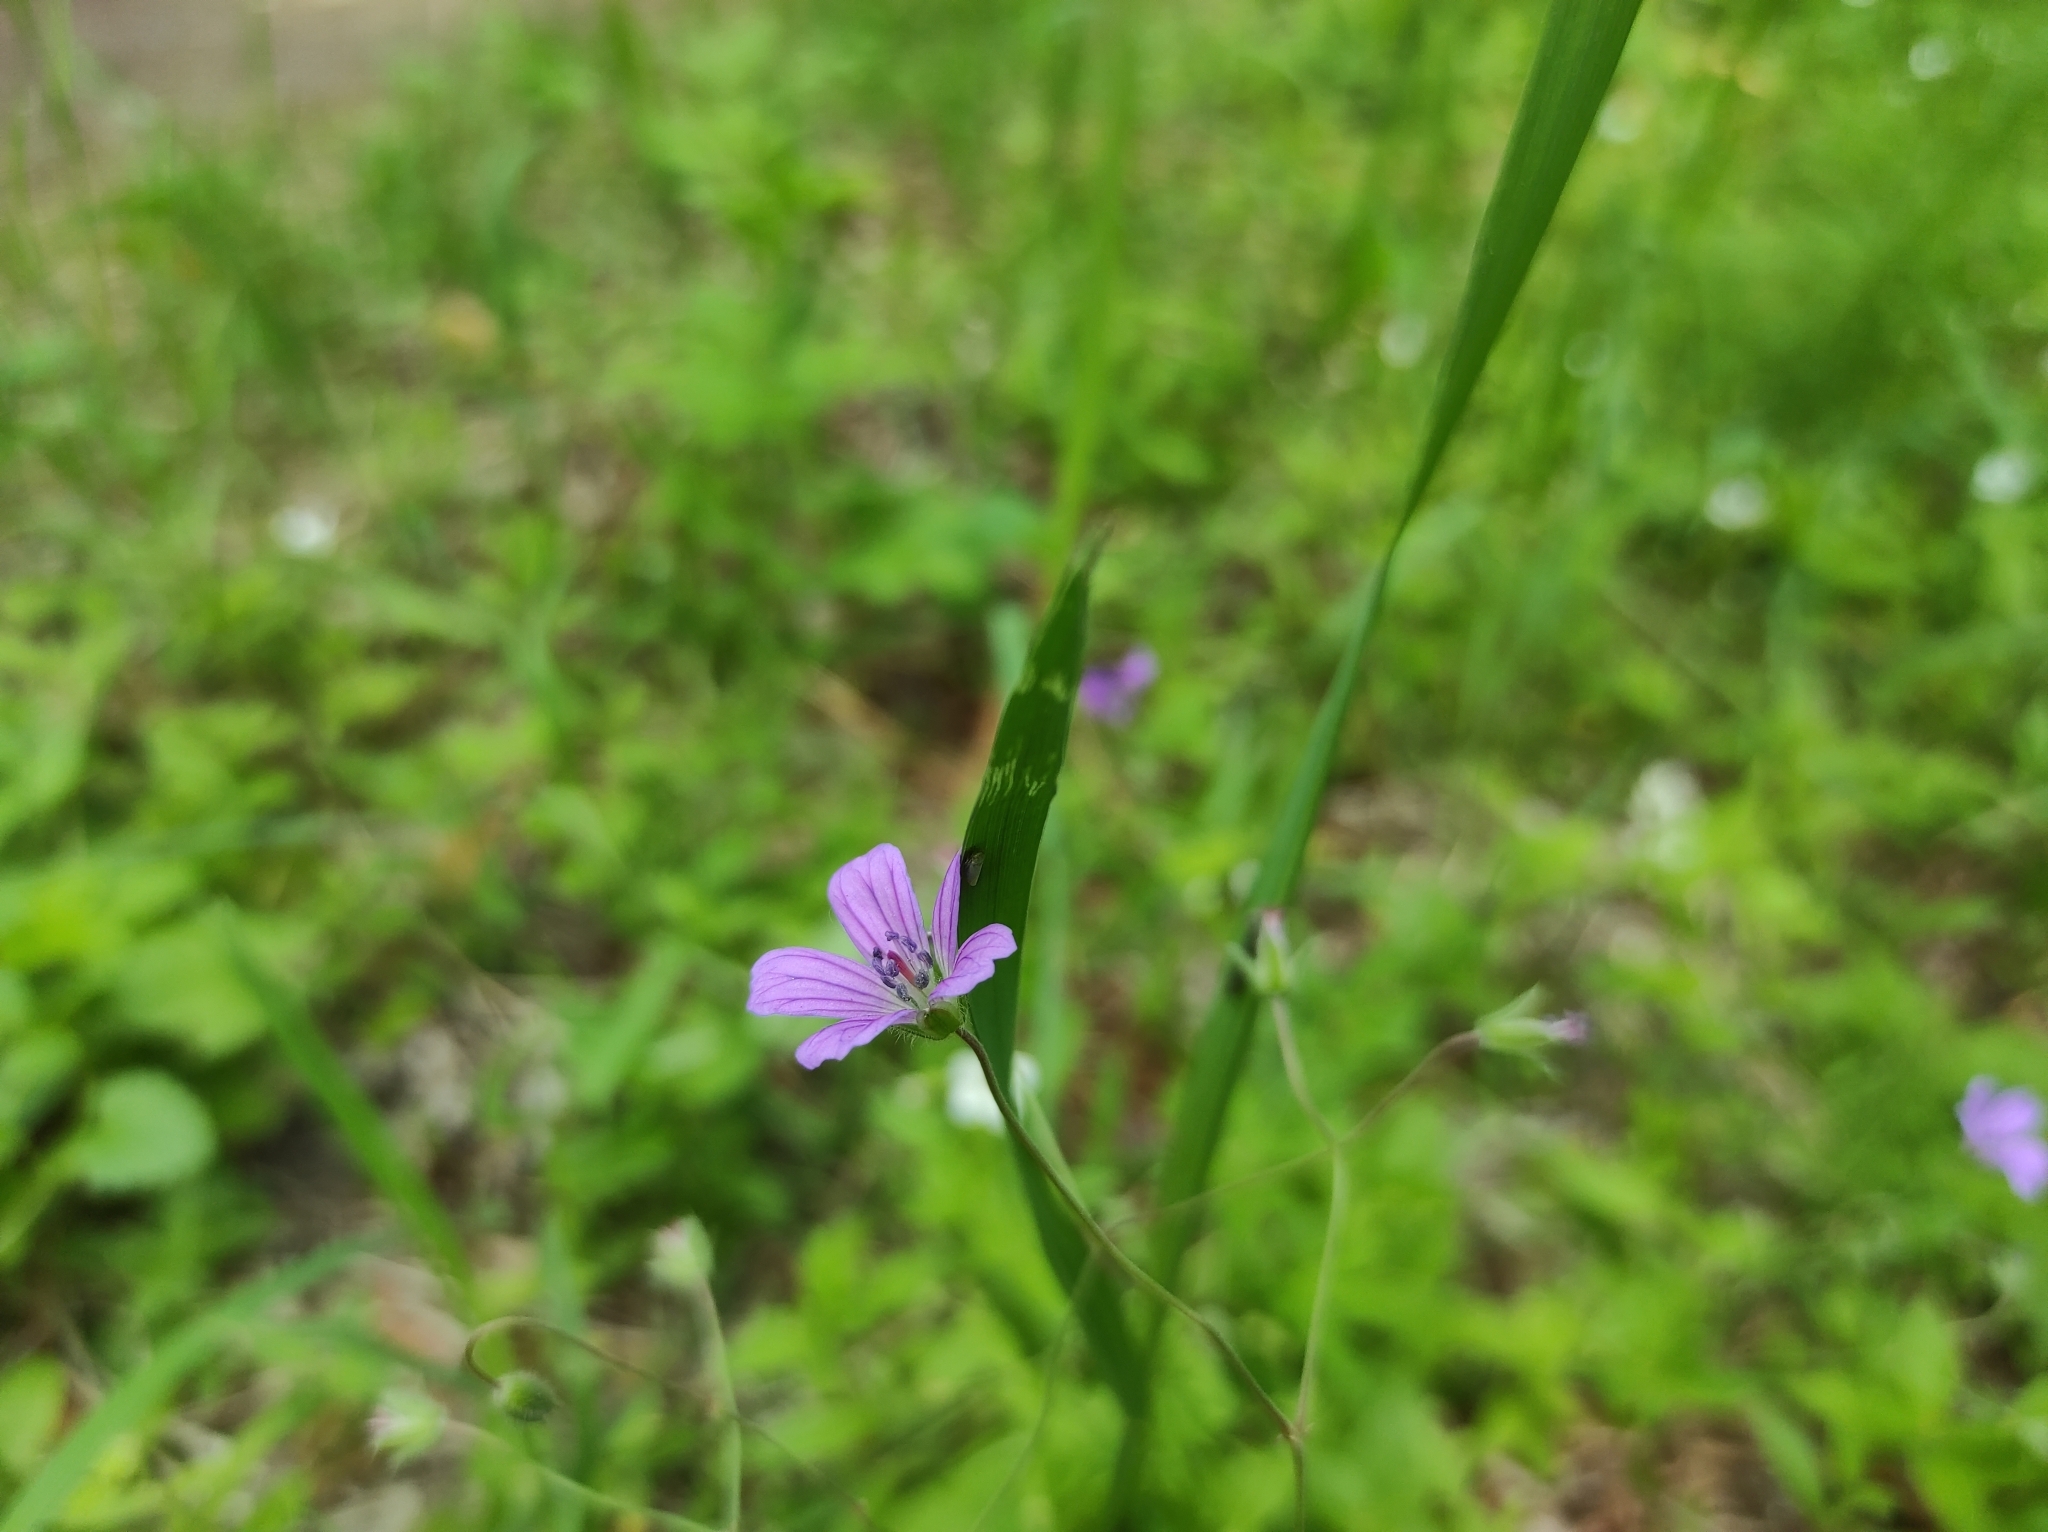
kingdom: Plantae
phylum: Tracheophyta
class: Magnoliopsida
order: Geraniales
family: Geraniaceae
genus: Geranium
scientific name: Geranium pseudosibiricum
